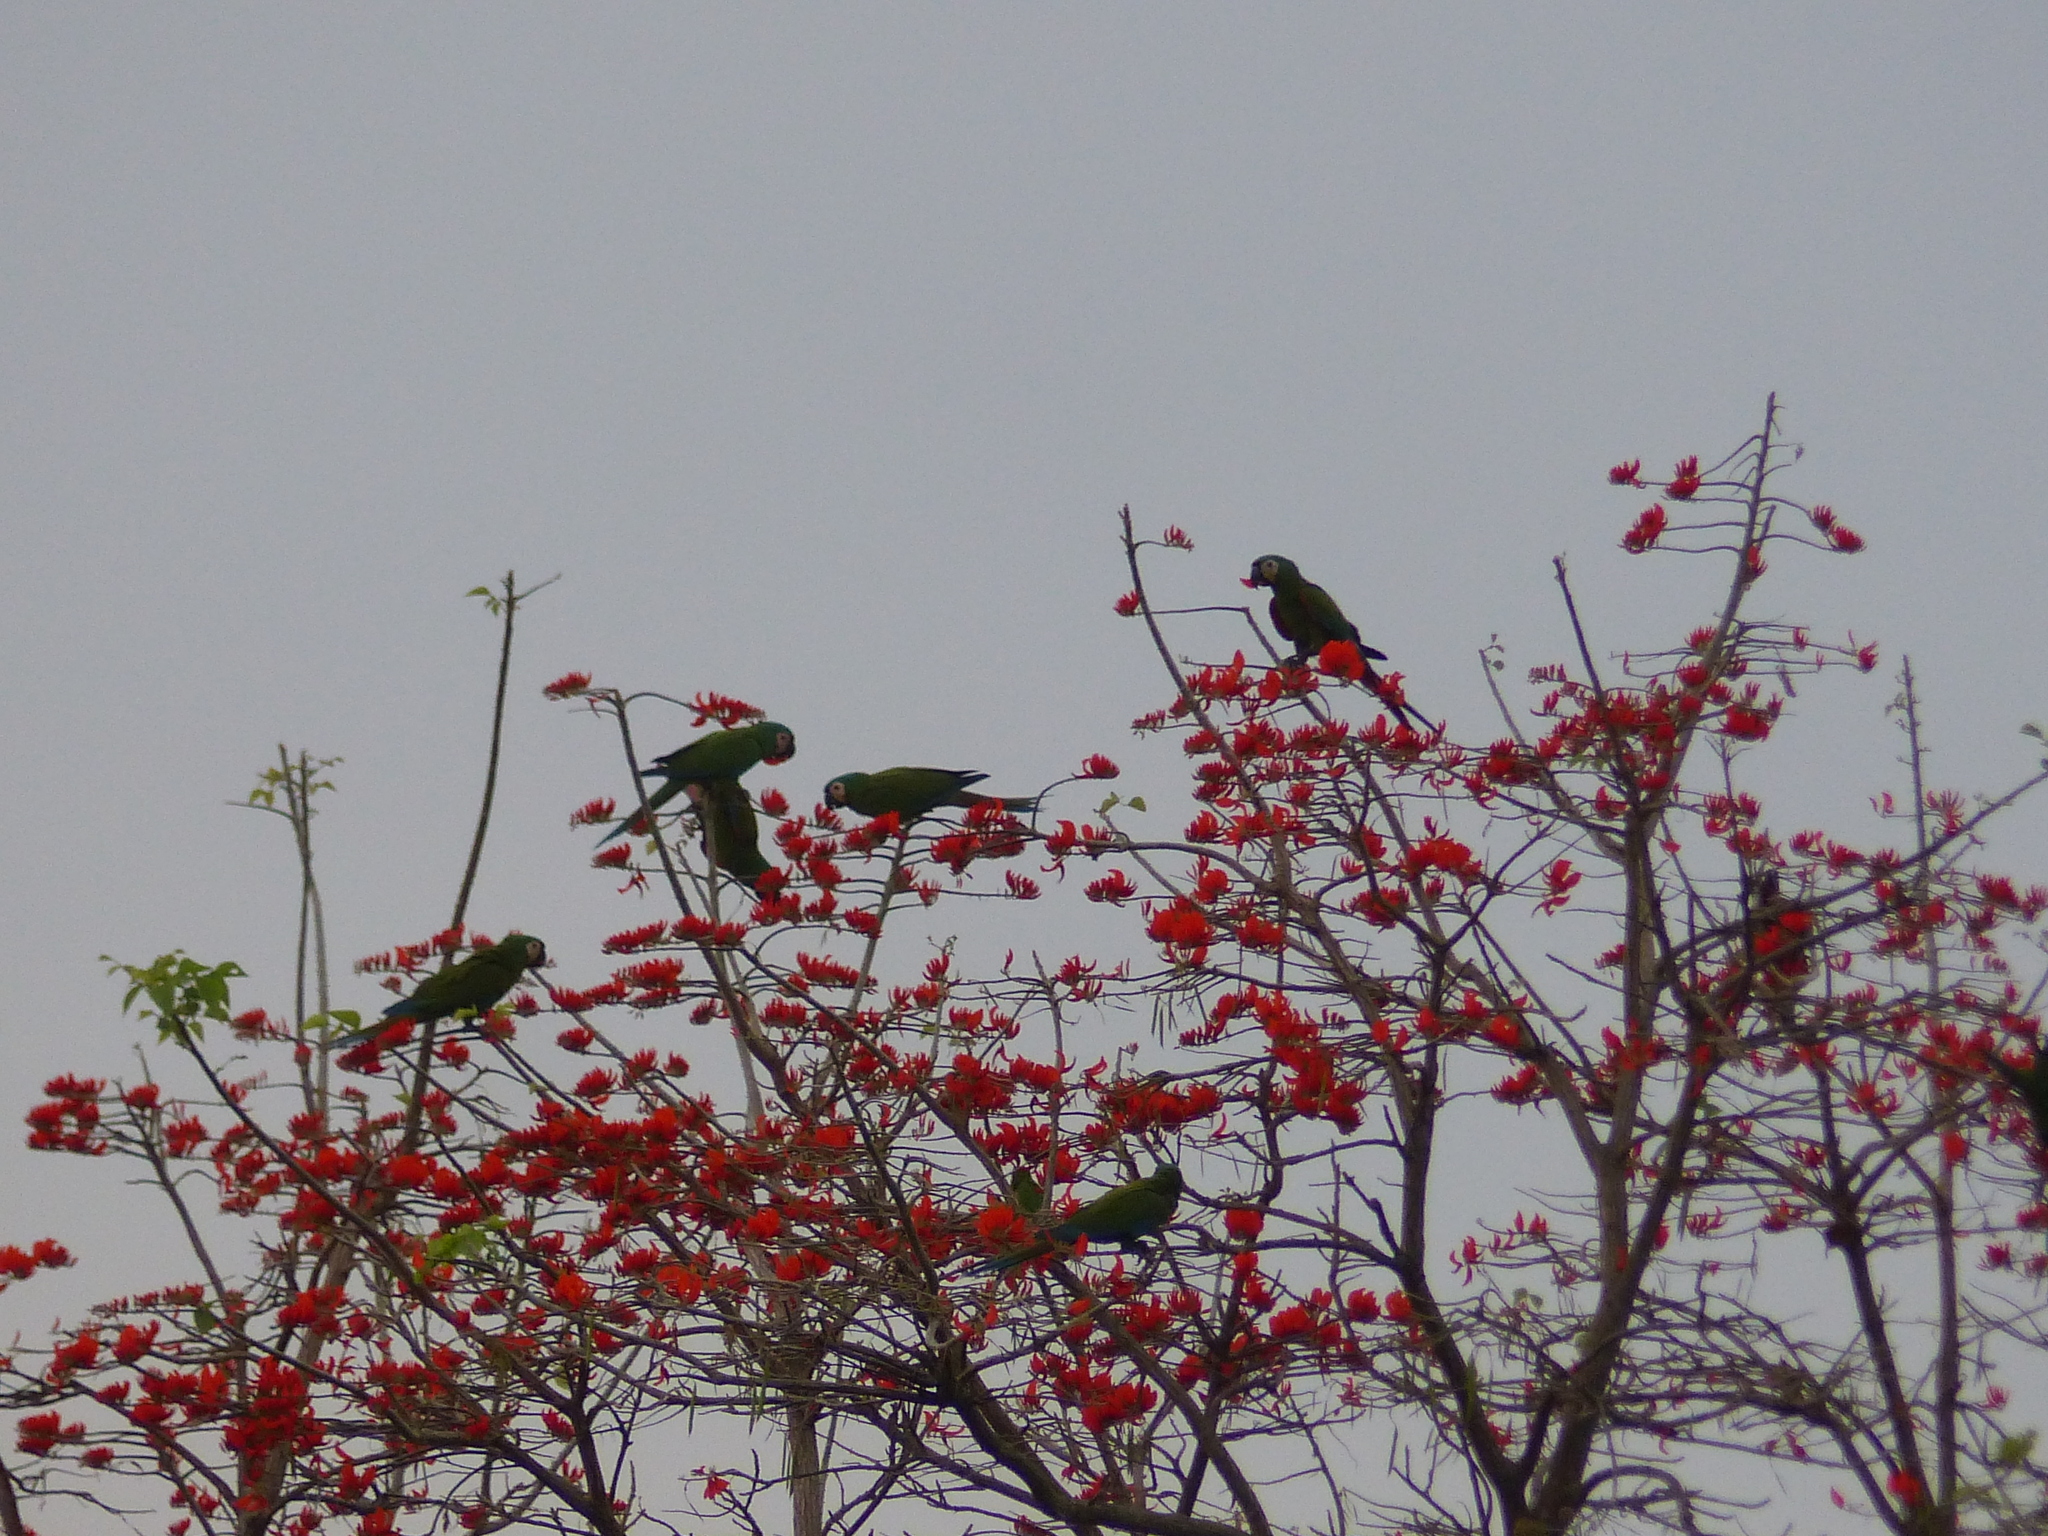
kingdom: Animalia
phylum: Chordata
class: Aves
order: Psittaciformes
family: Psittacidae
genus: Ara
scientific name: Ara severus
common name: Chestnut-fronted macaw
